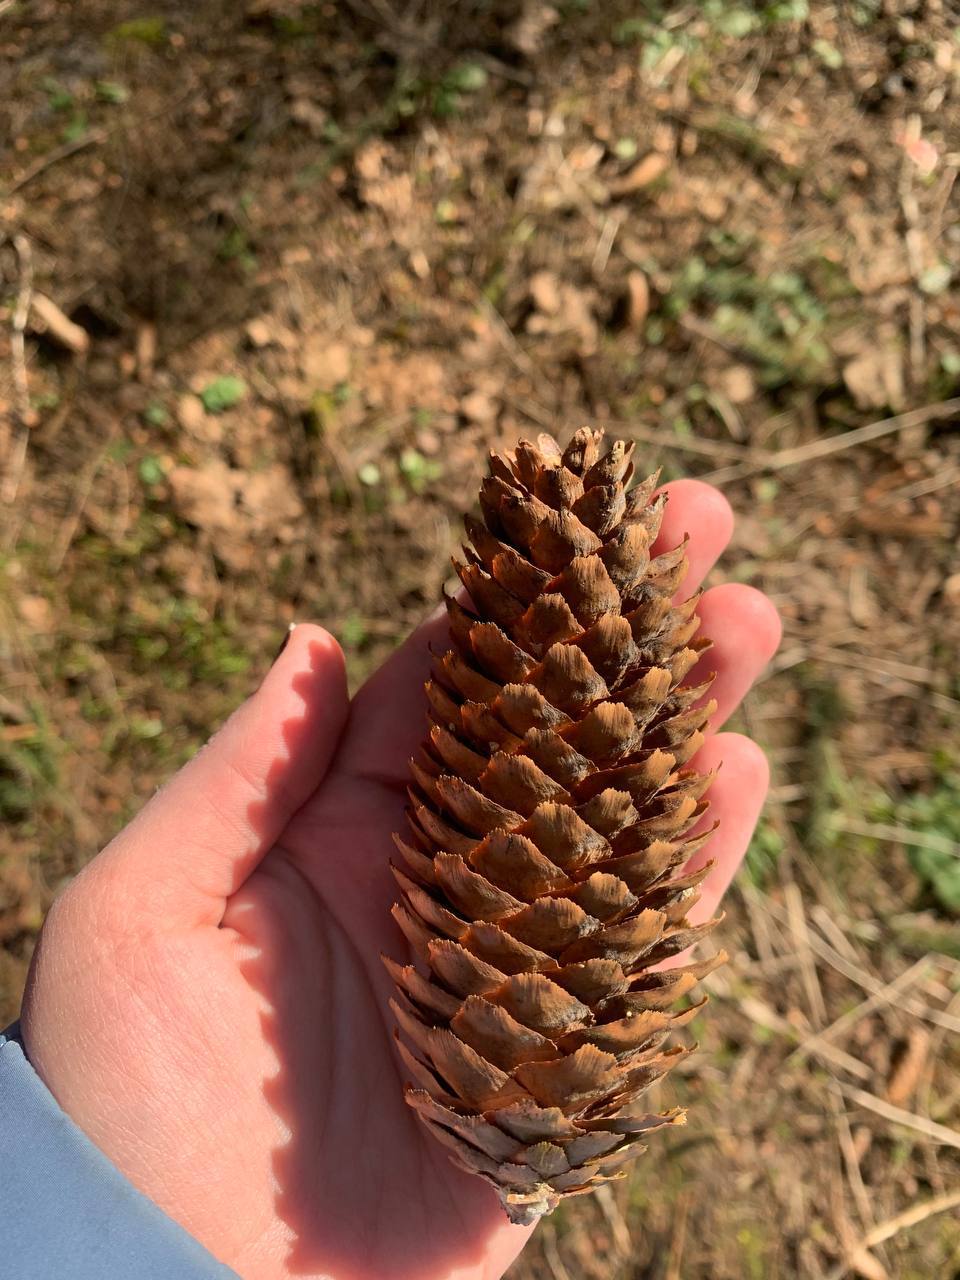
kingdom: Plantae
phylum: Tracheophyta
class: Pinopsida
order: Pinales
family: Pinaceae
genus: Picea
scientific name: Picea abies
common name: Norway spruce
